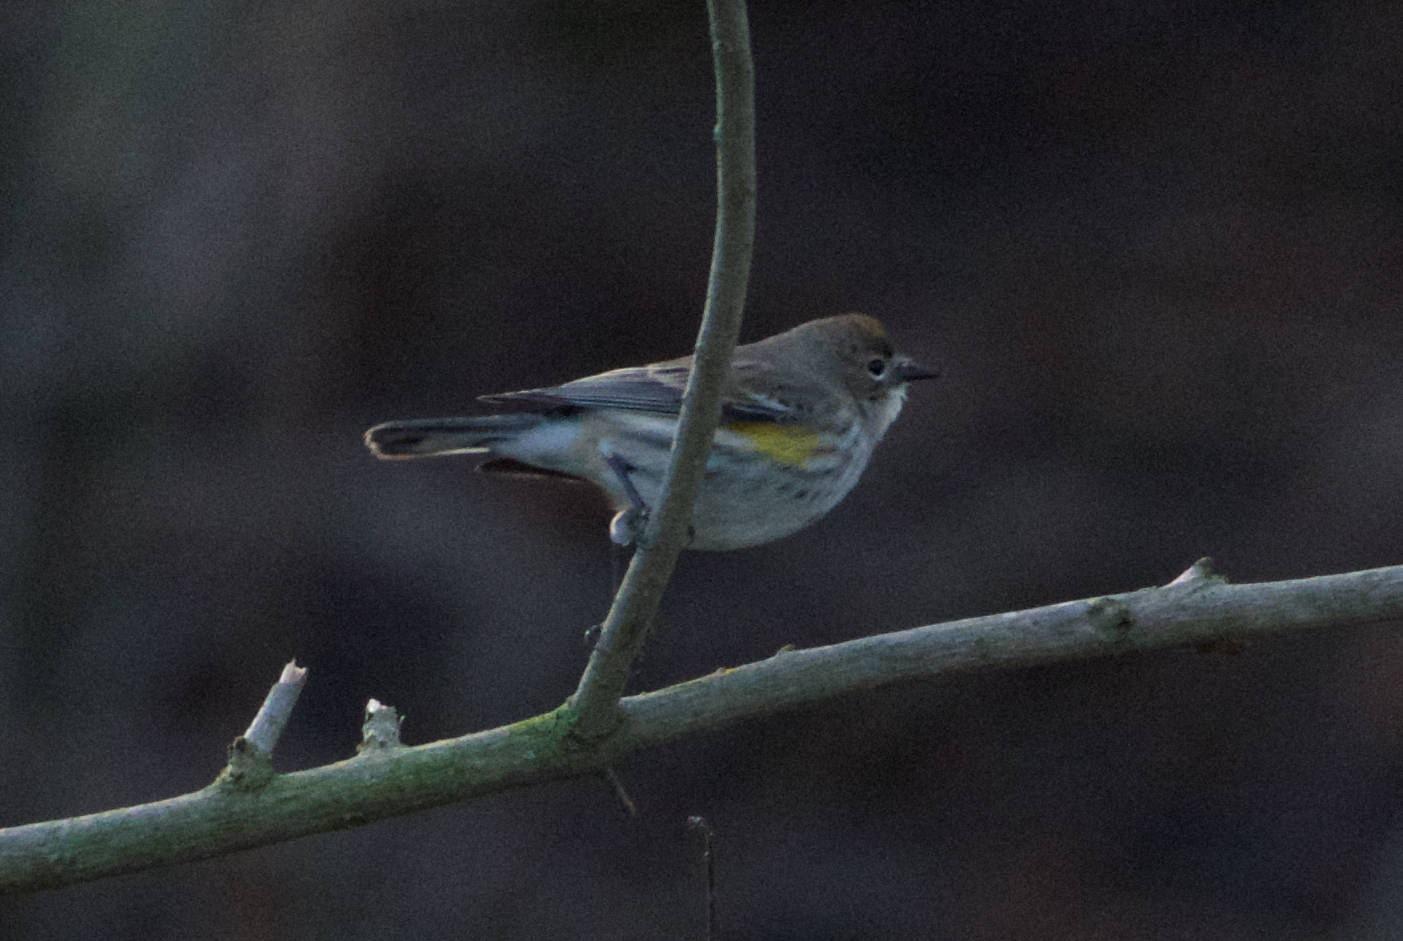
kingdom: Animalia
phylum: Chordata
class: Aves
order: Passeriformes
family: Parulidae
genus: Setophaga
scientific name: Setophaga coronata
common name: Myrtle warbler
